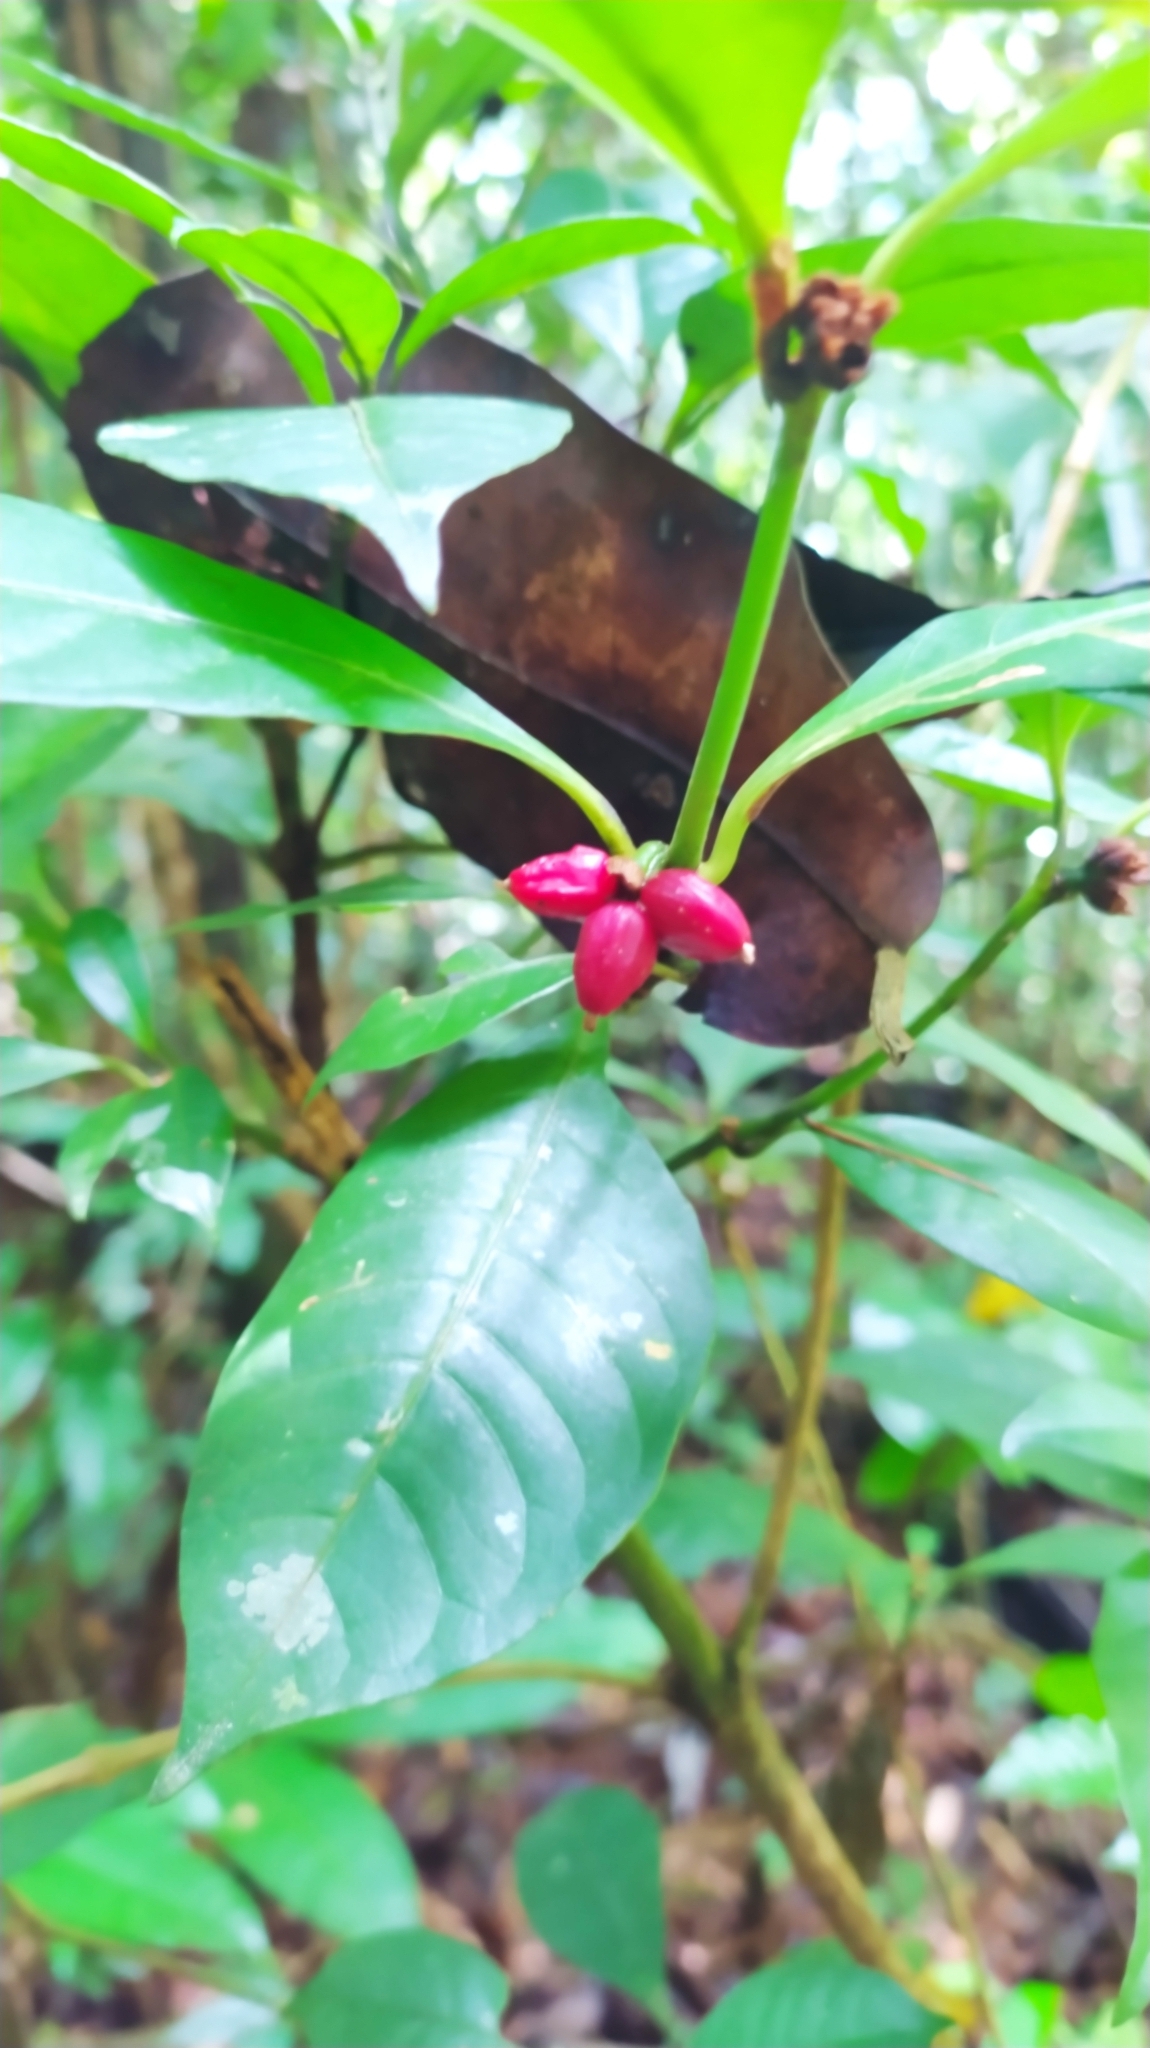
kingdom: Plantae
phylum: Tracheophyta
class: Magnoliopsida
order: Gentianales
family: Rubiaceae
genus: Eumachia
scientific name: Eumachia kappleri
